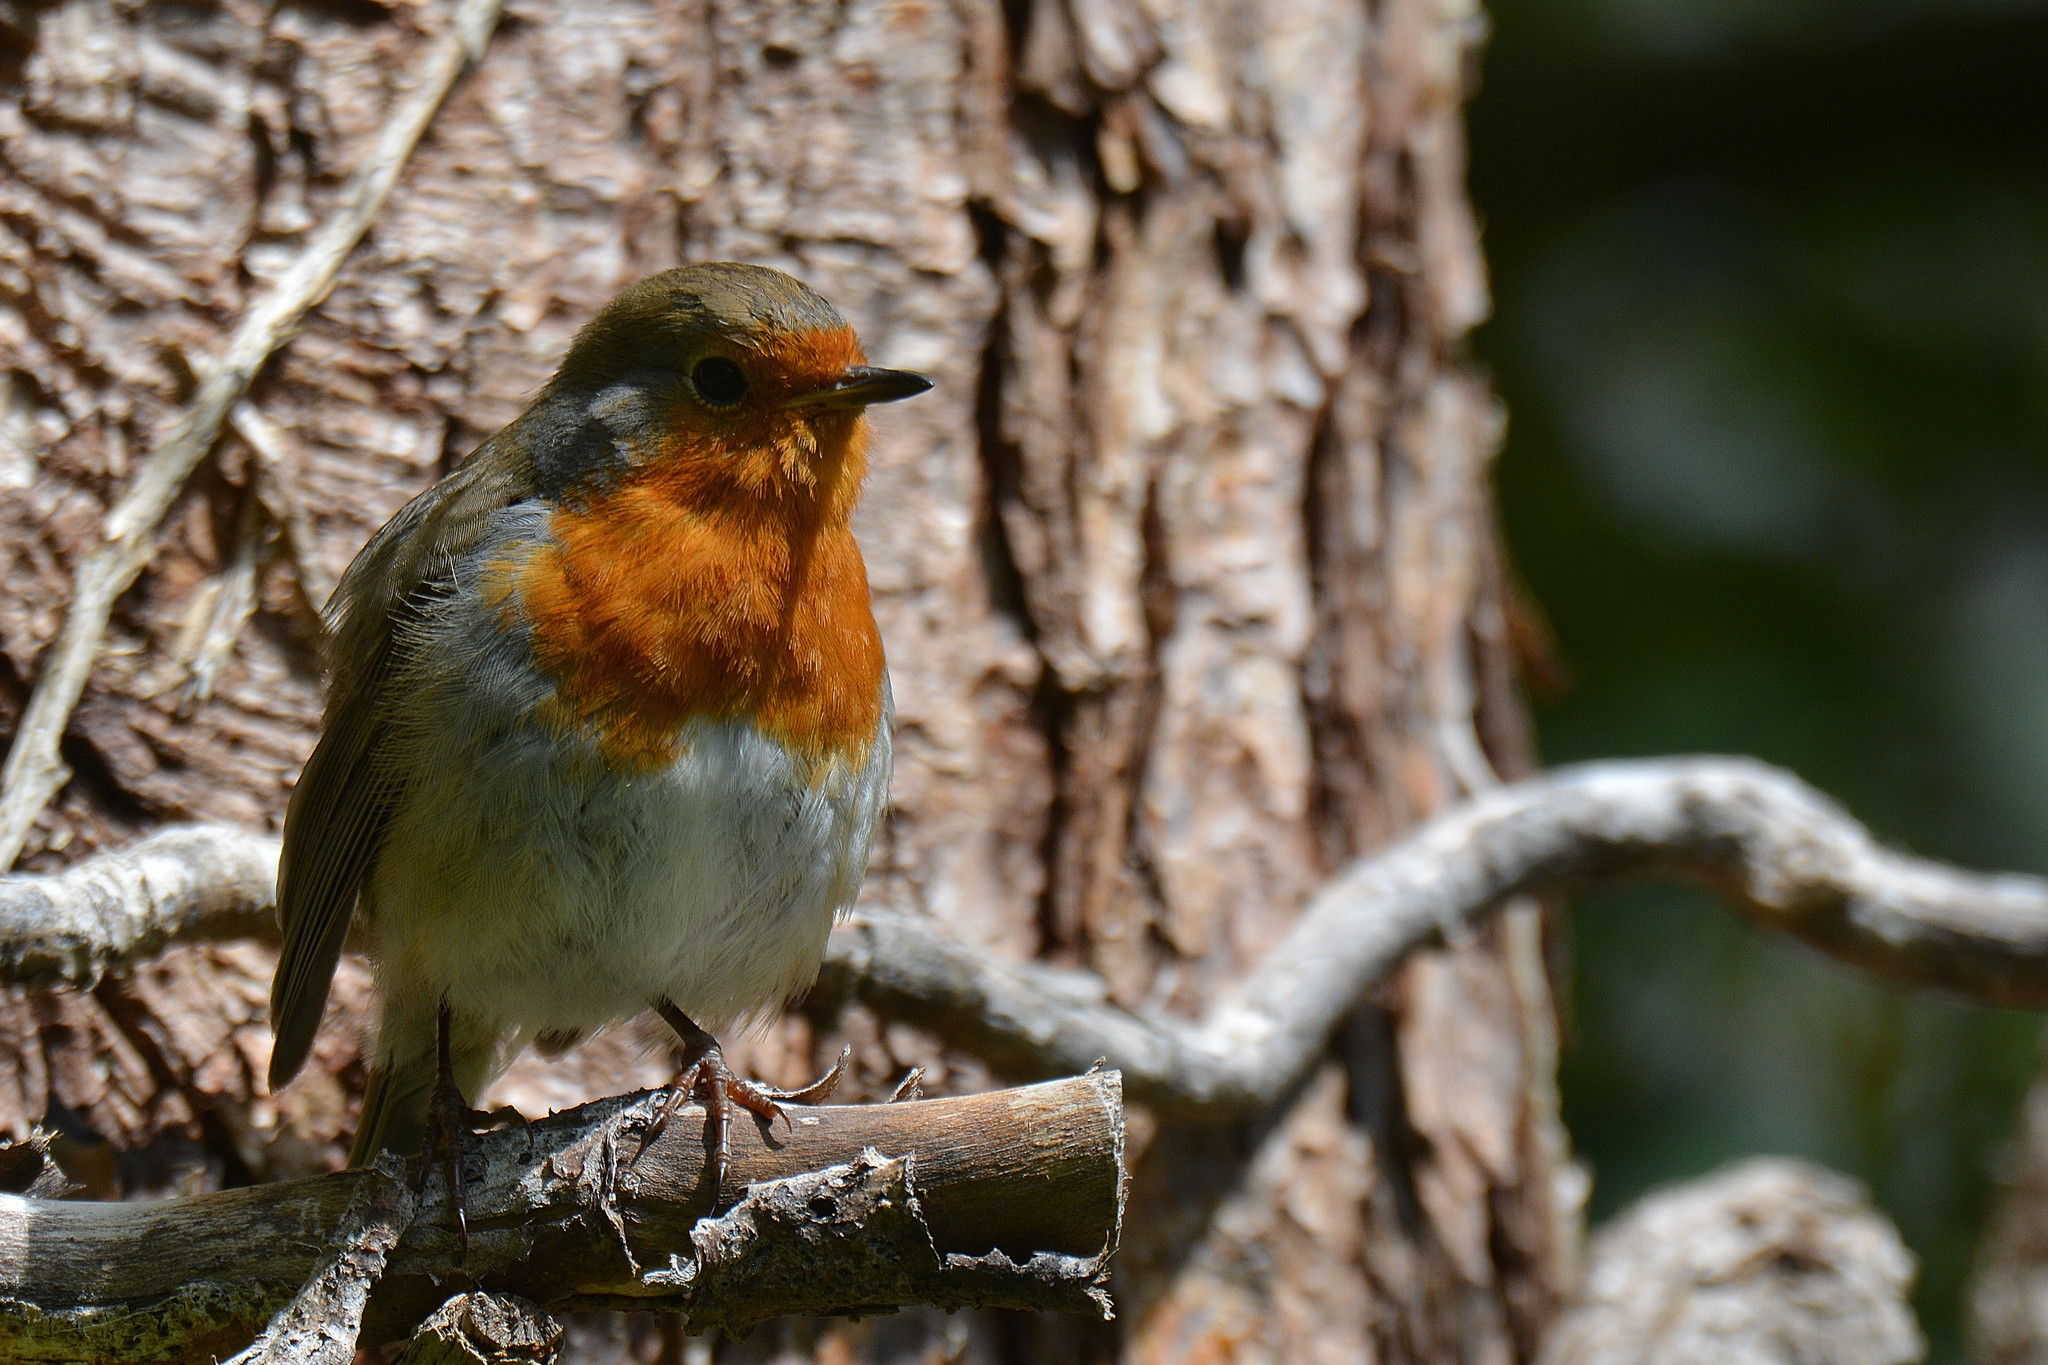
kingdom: Animalia
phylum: Chordata
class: Aves
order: Passeriformes
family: Muscicapidae
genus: Erithacus
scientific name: Erithacus rubecula
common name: European robin
